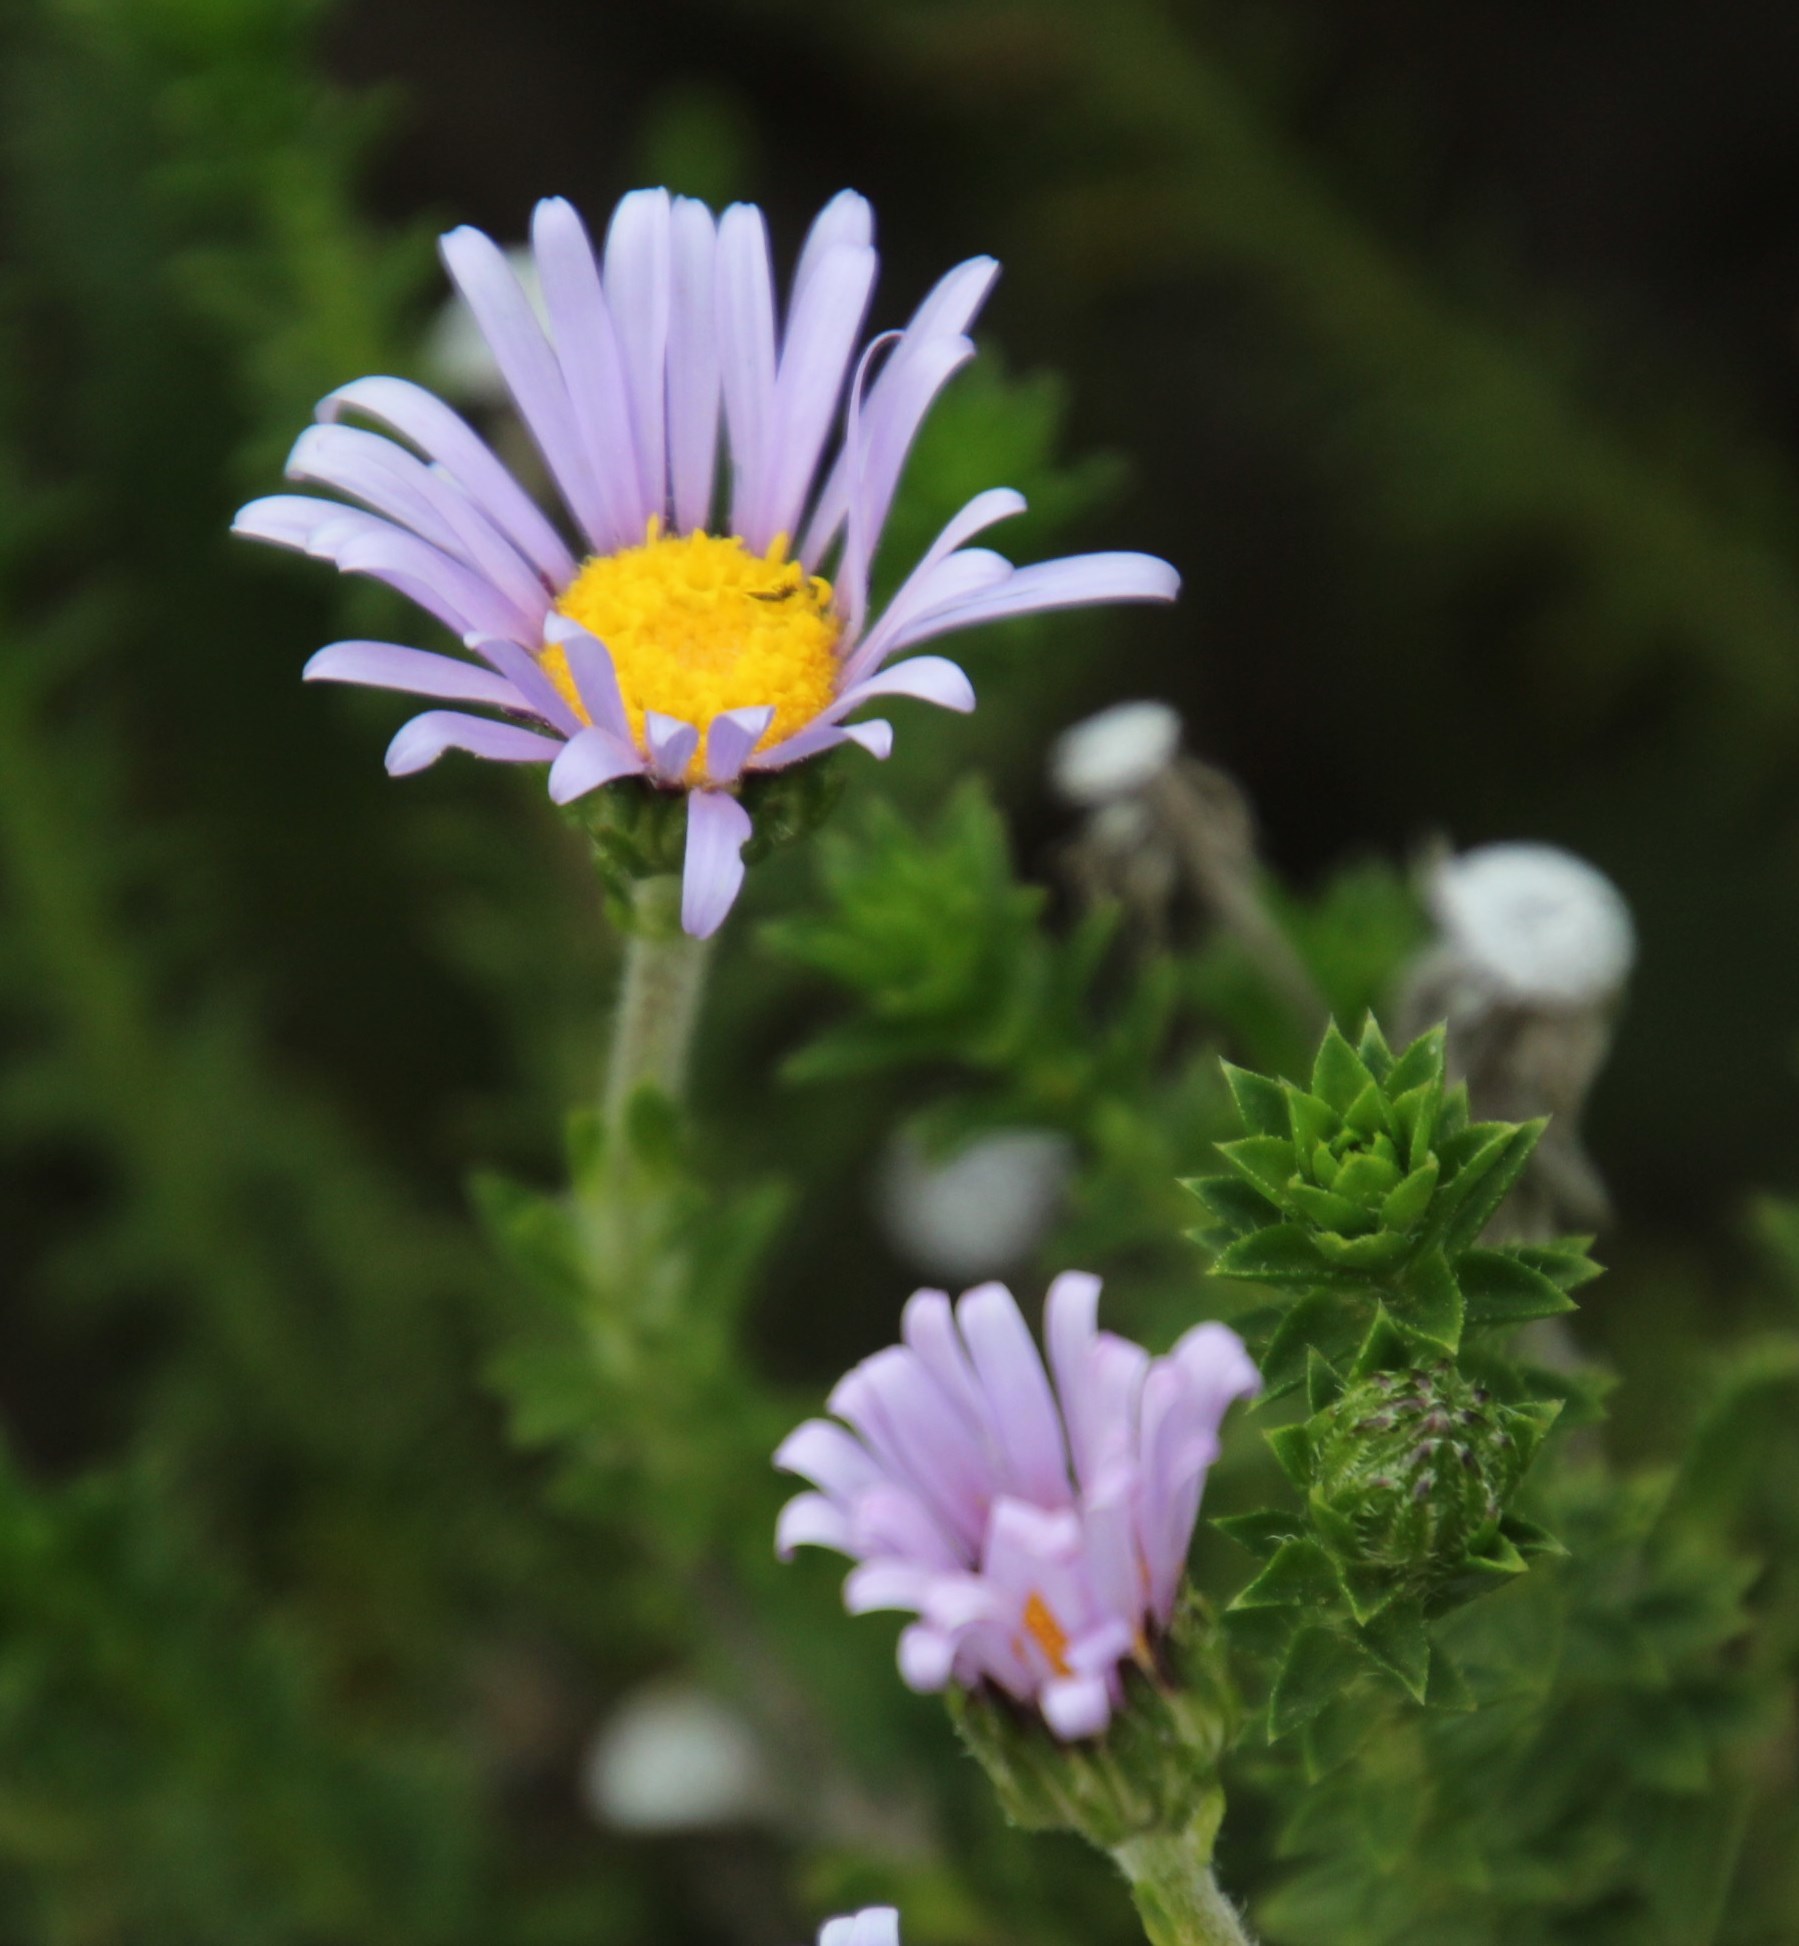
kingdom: Plantae
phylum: Tracheophyta
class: Magnoliopsida
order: Asterales
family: Asteraceae
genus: Felicia
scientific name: Felicia echinata
